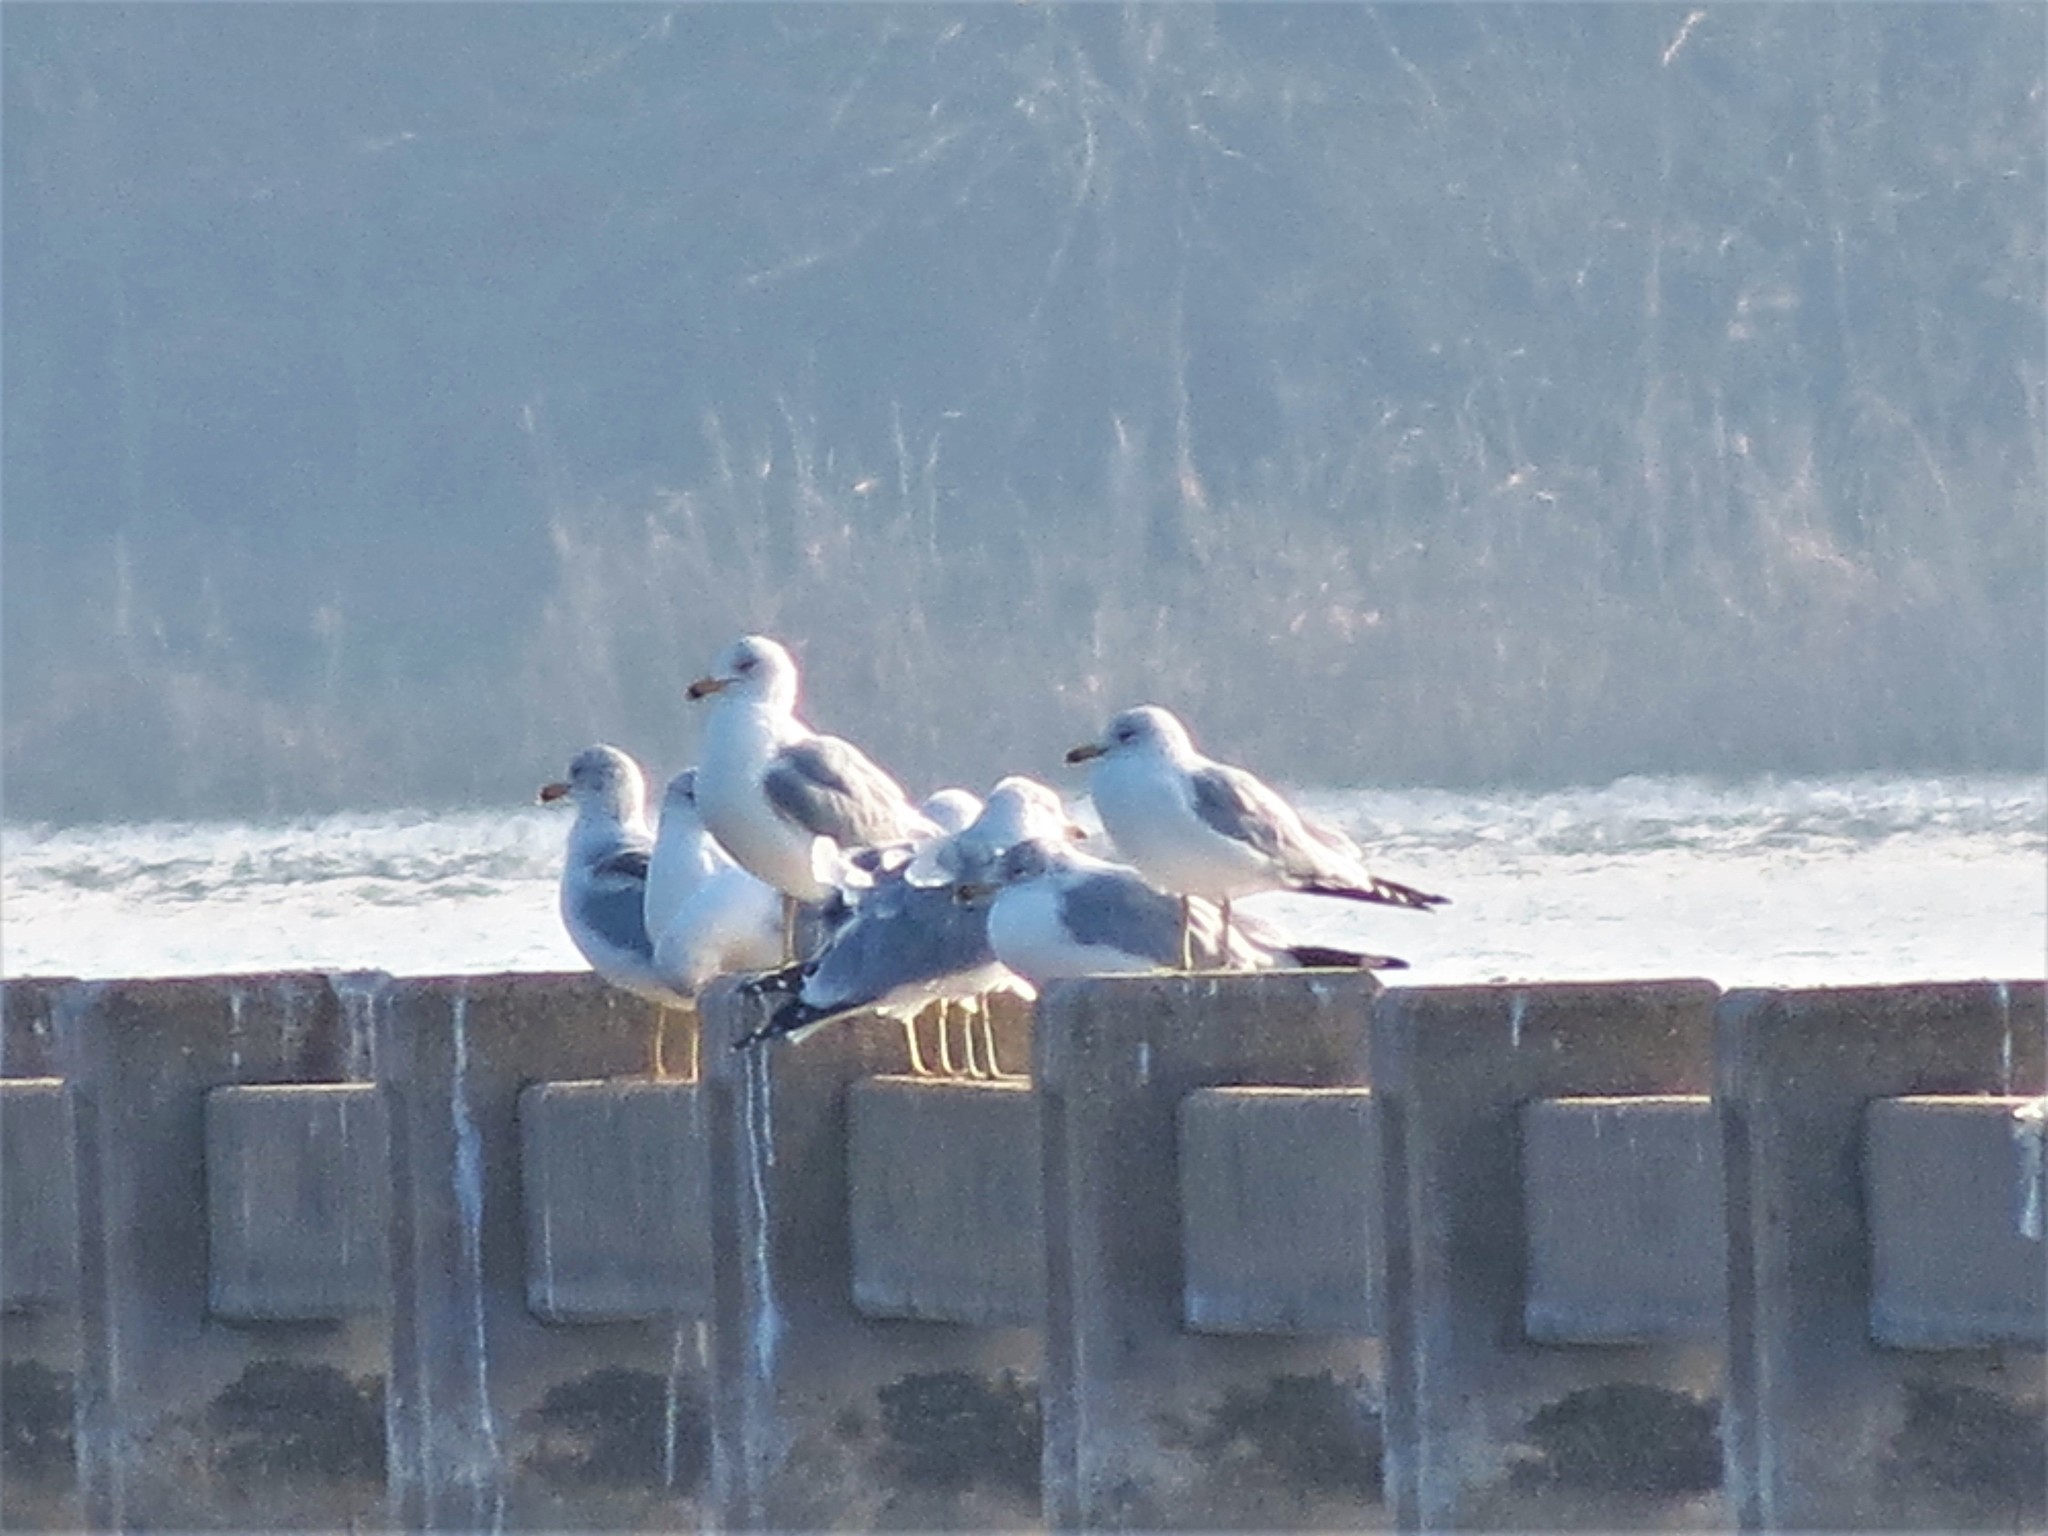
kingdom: Animalia
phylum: Chordata
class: Aves
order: Charadriiformes
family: Laridae
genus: Larus
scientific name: Larus delawarensis
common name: Ring-billed gull
